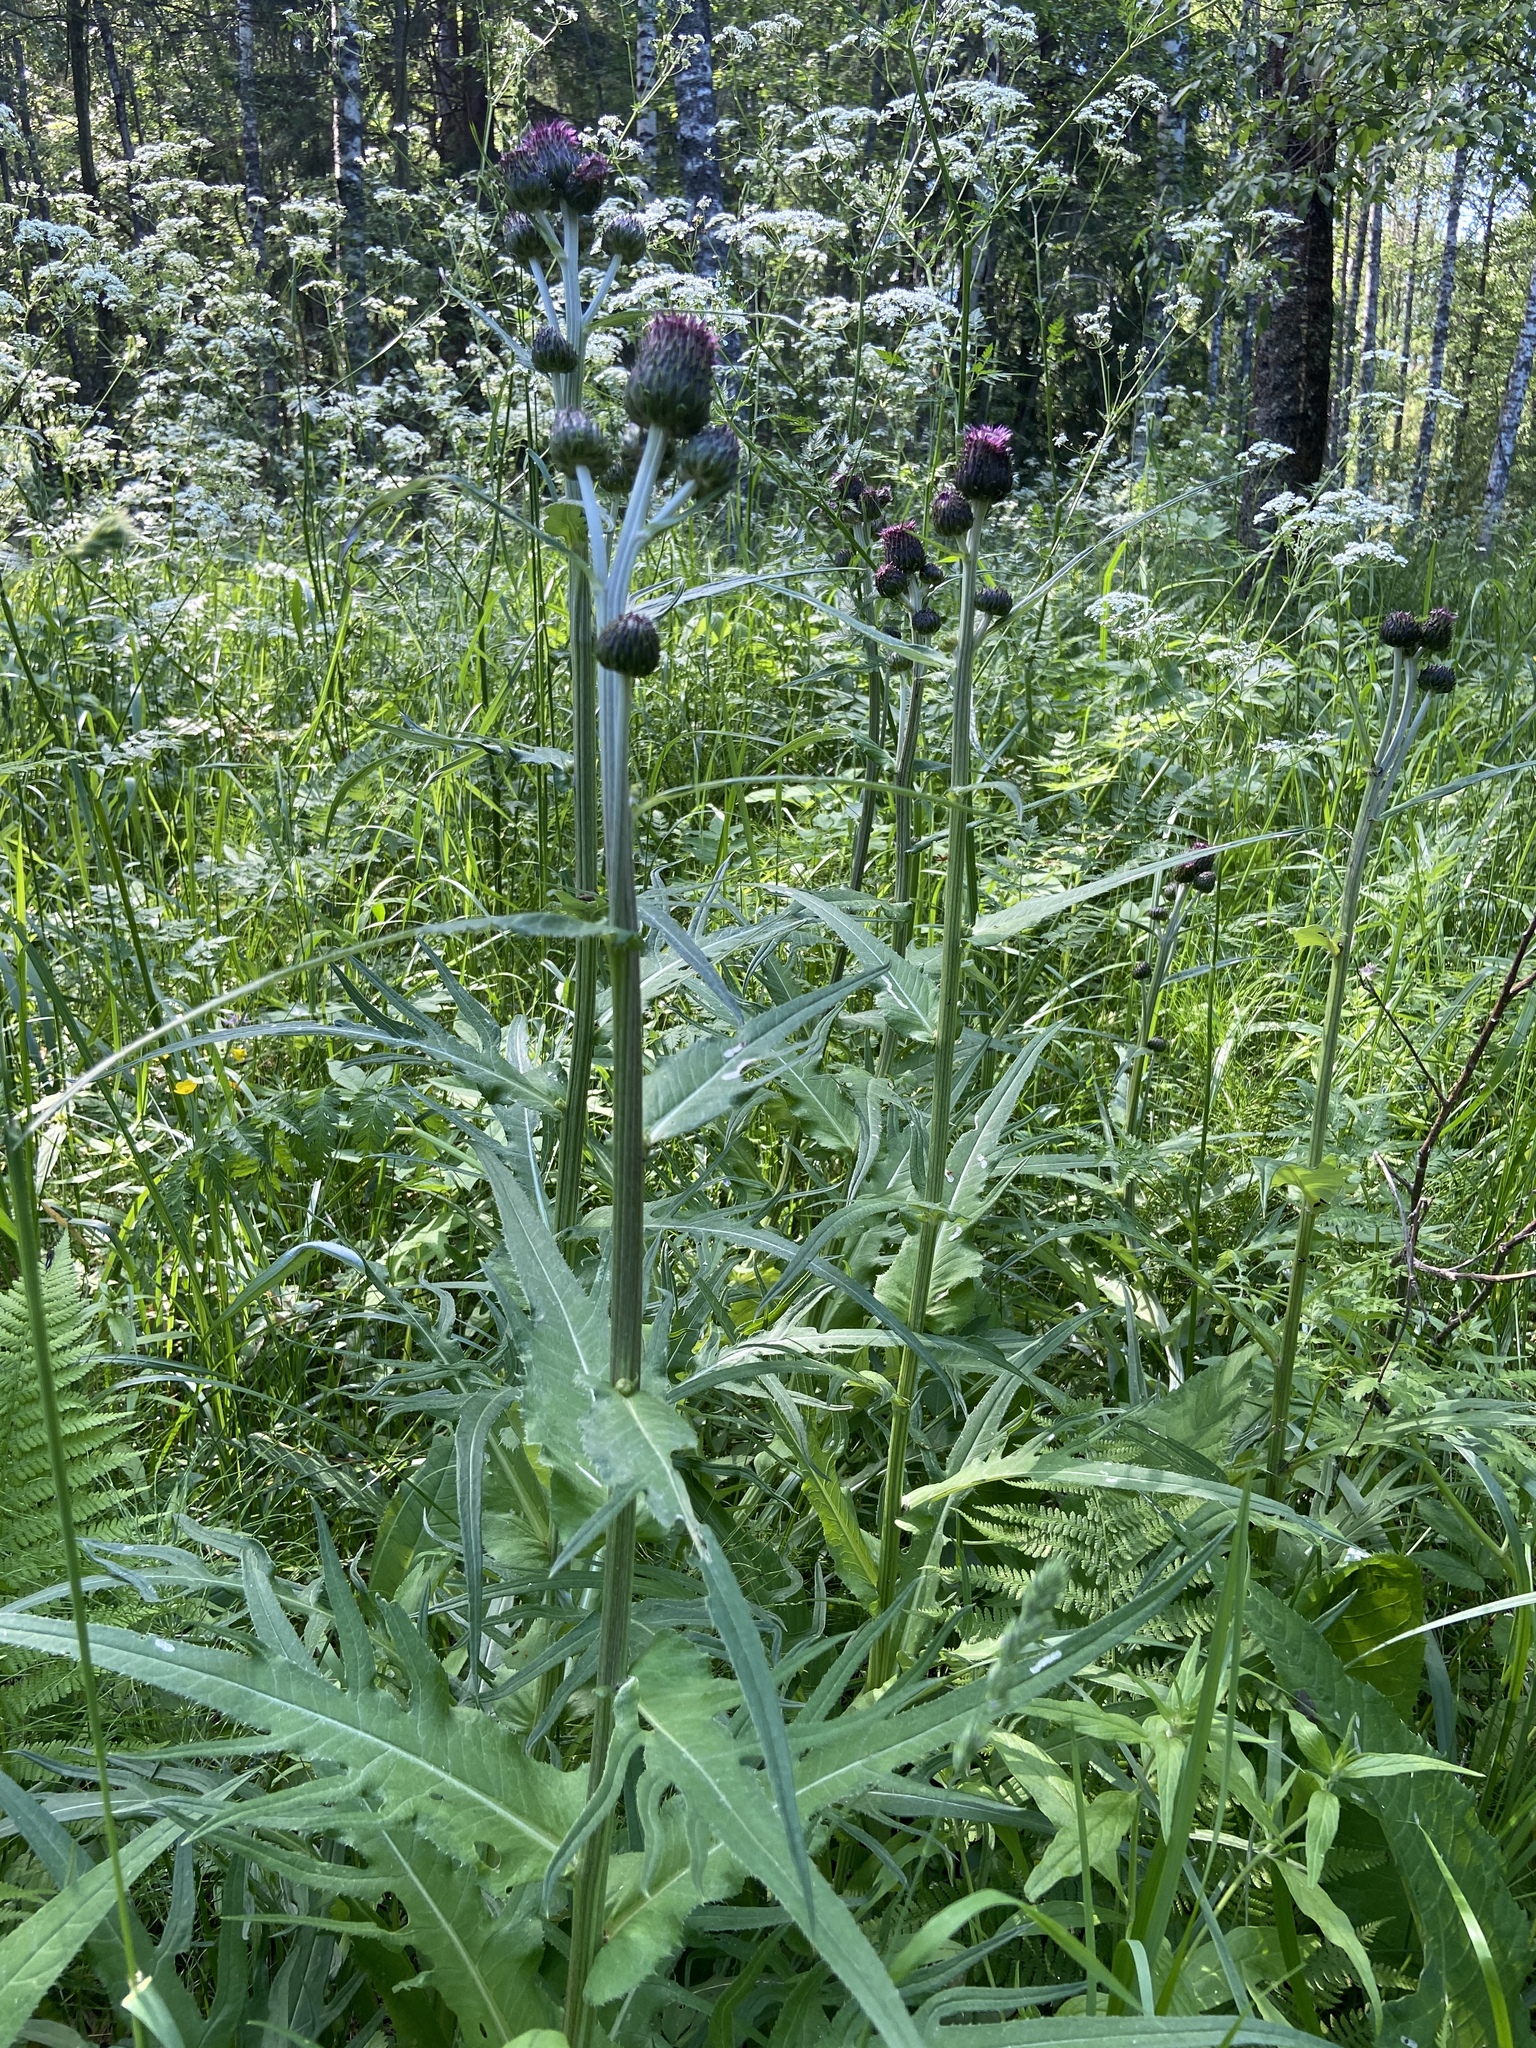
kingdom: Plantae
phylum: Tracheophyta
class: Magnoliopsida
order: Asterales
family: Asteraceae
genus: Cirsium
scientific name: Cirsium heterophyllum
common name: Melancholy thistle
